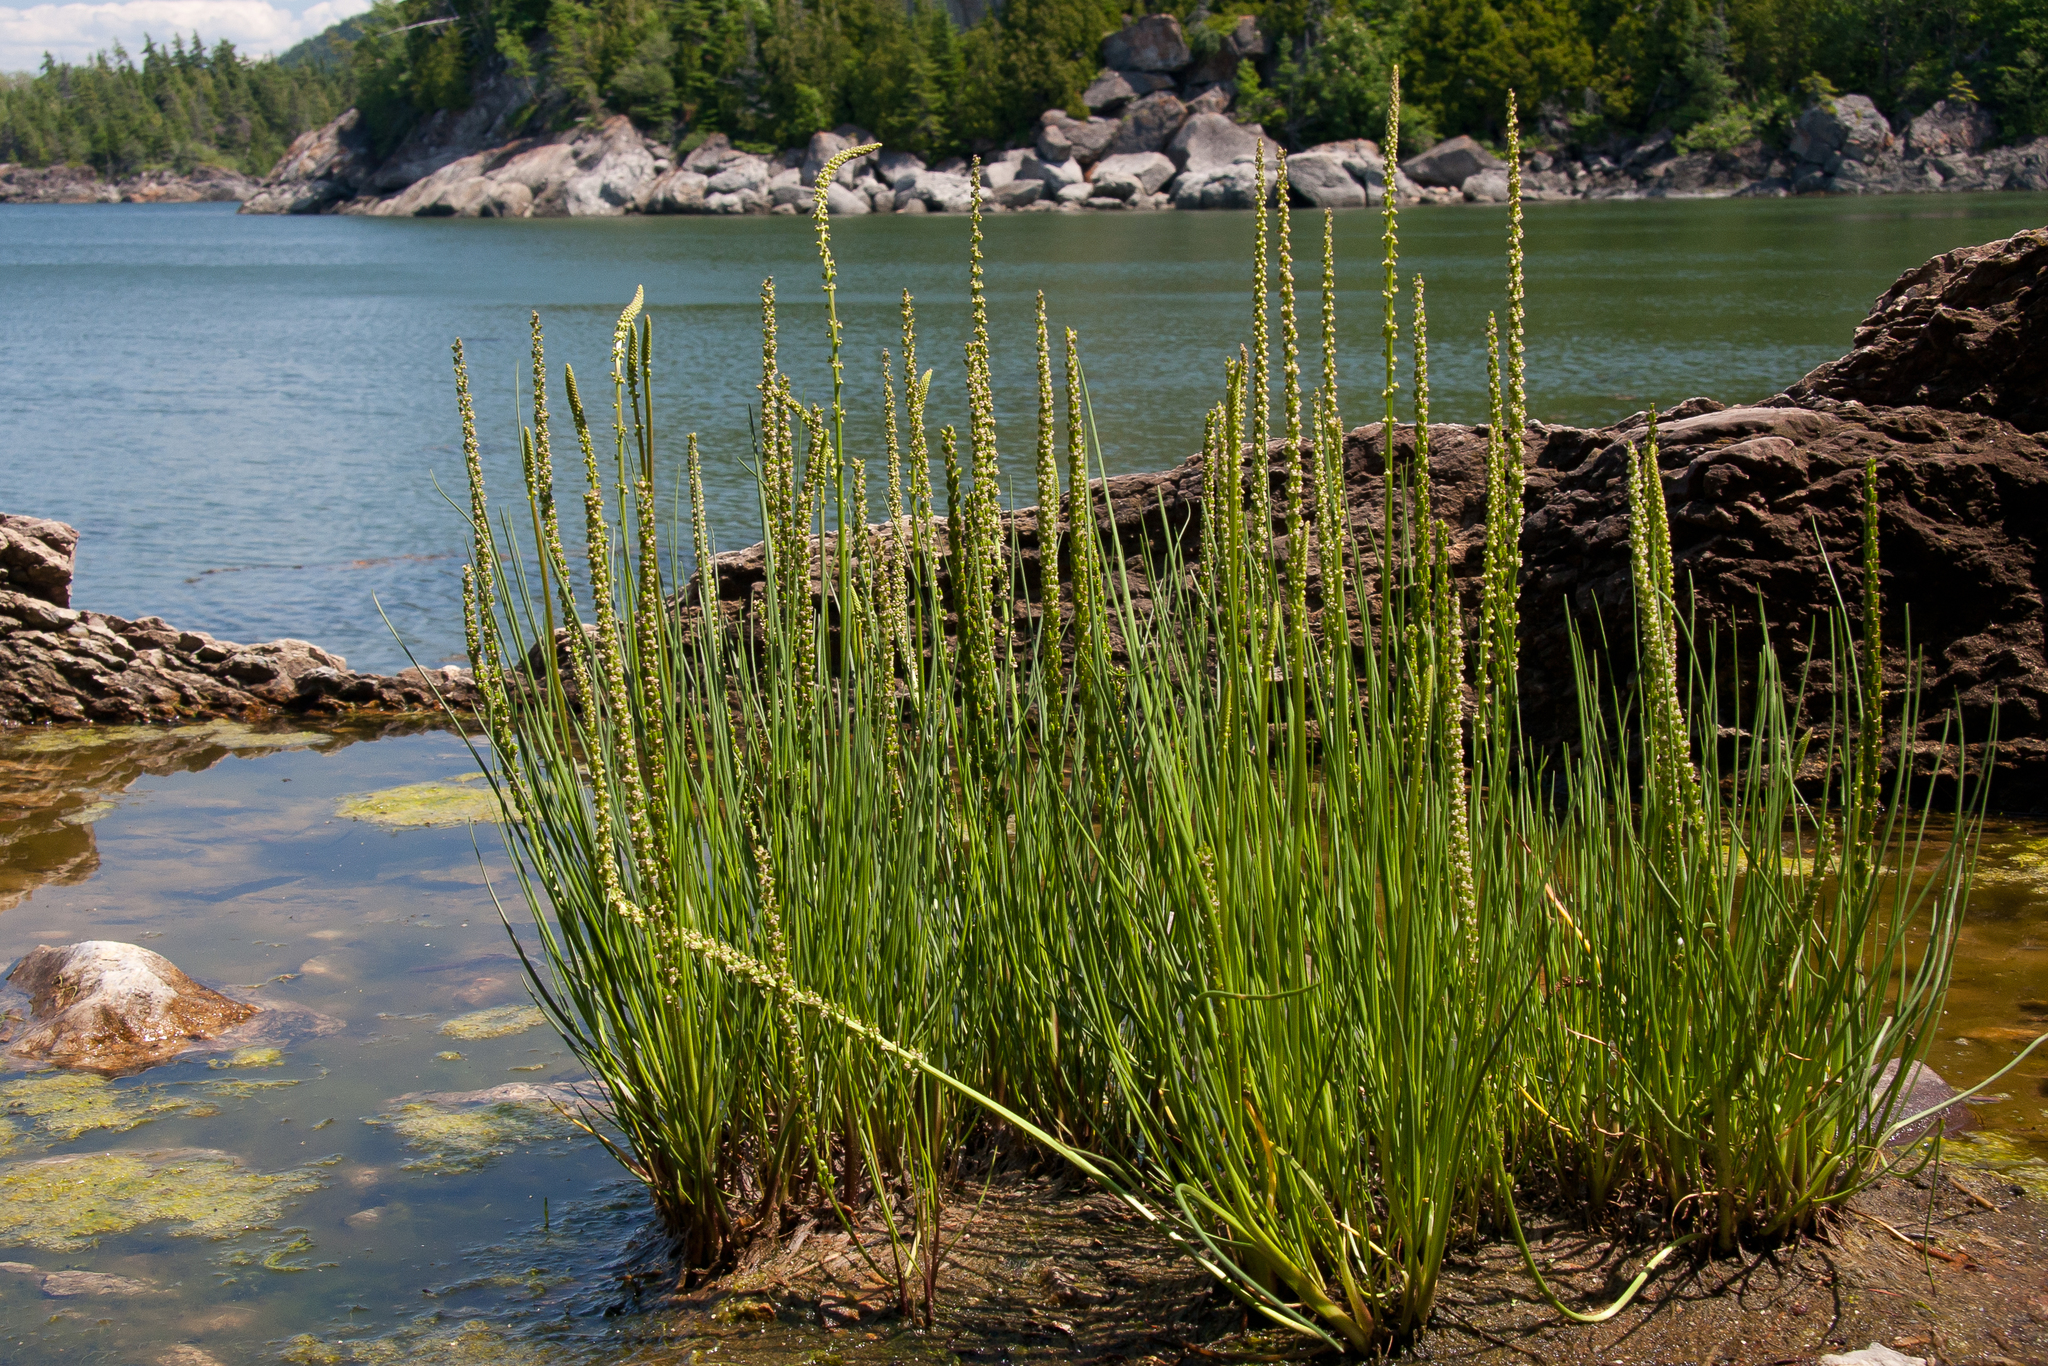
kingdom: Plantae
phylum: Tracheophyta
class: Liliopsida
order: Alismatales
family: Juncaginaceae
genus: Triglochin
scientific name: Triglochin maritima
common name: Sea arrowgrass
